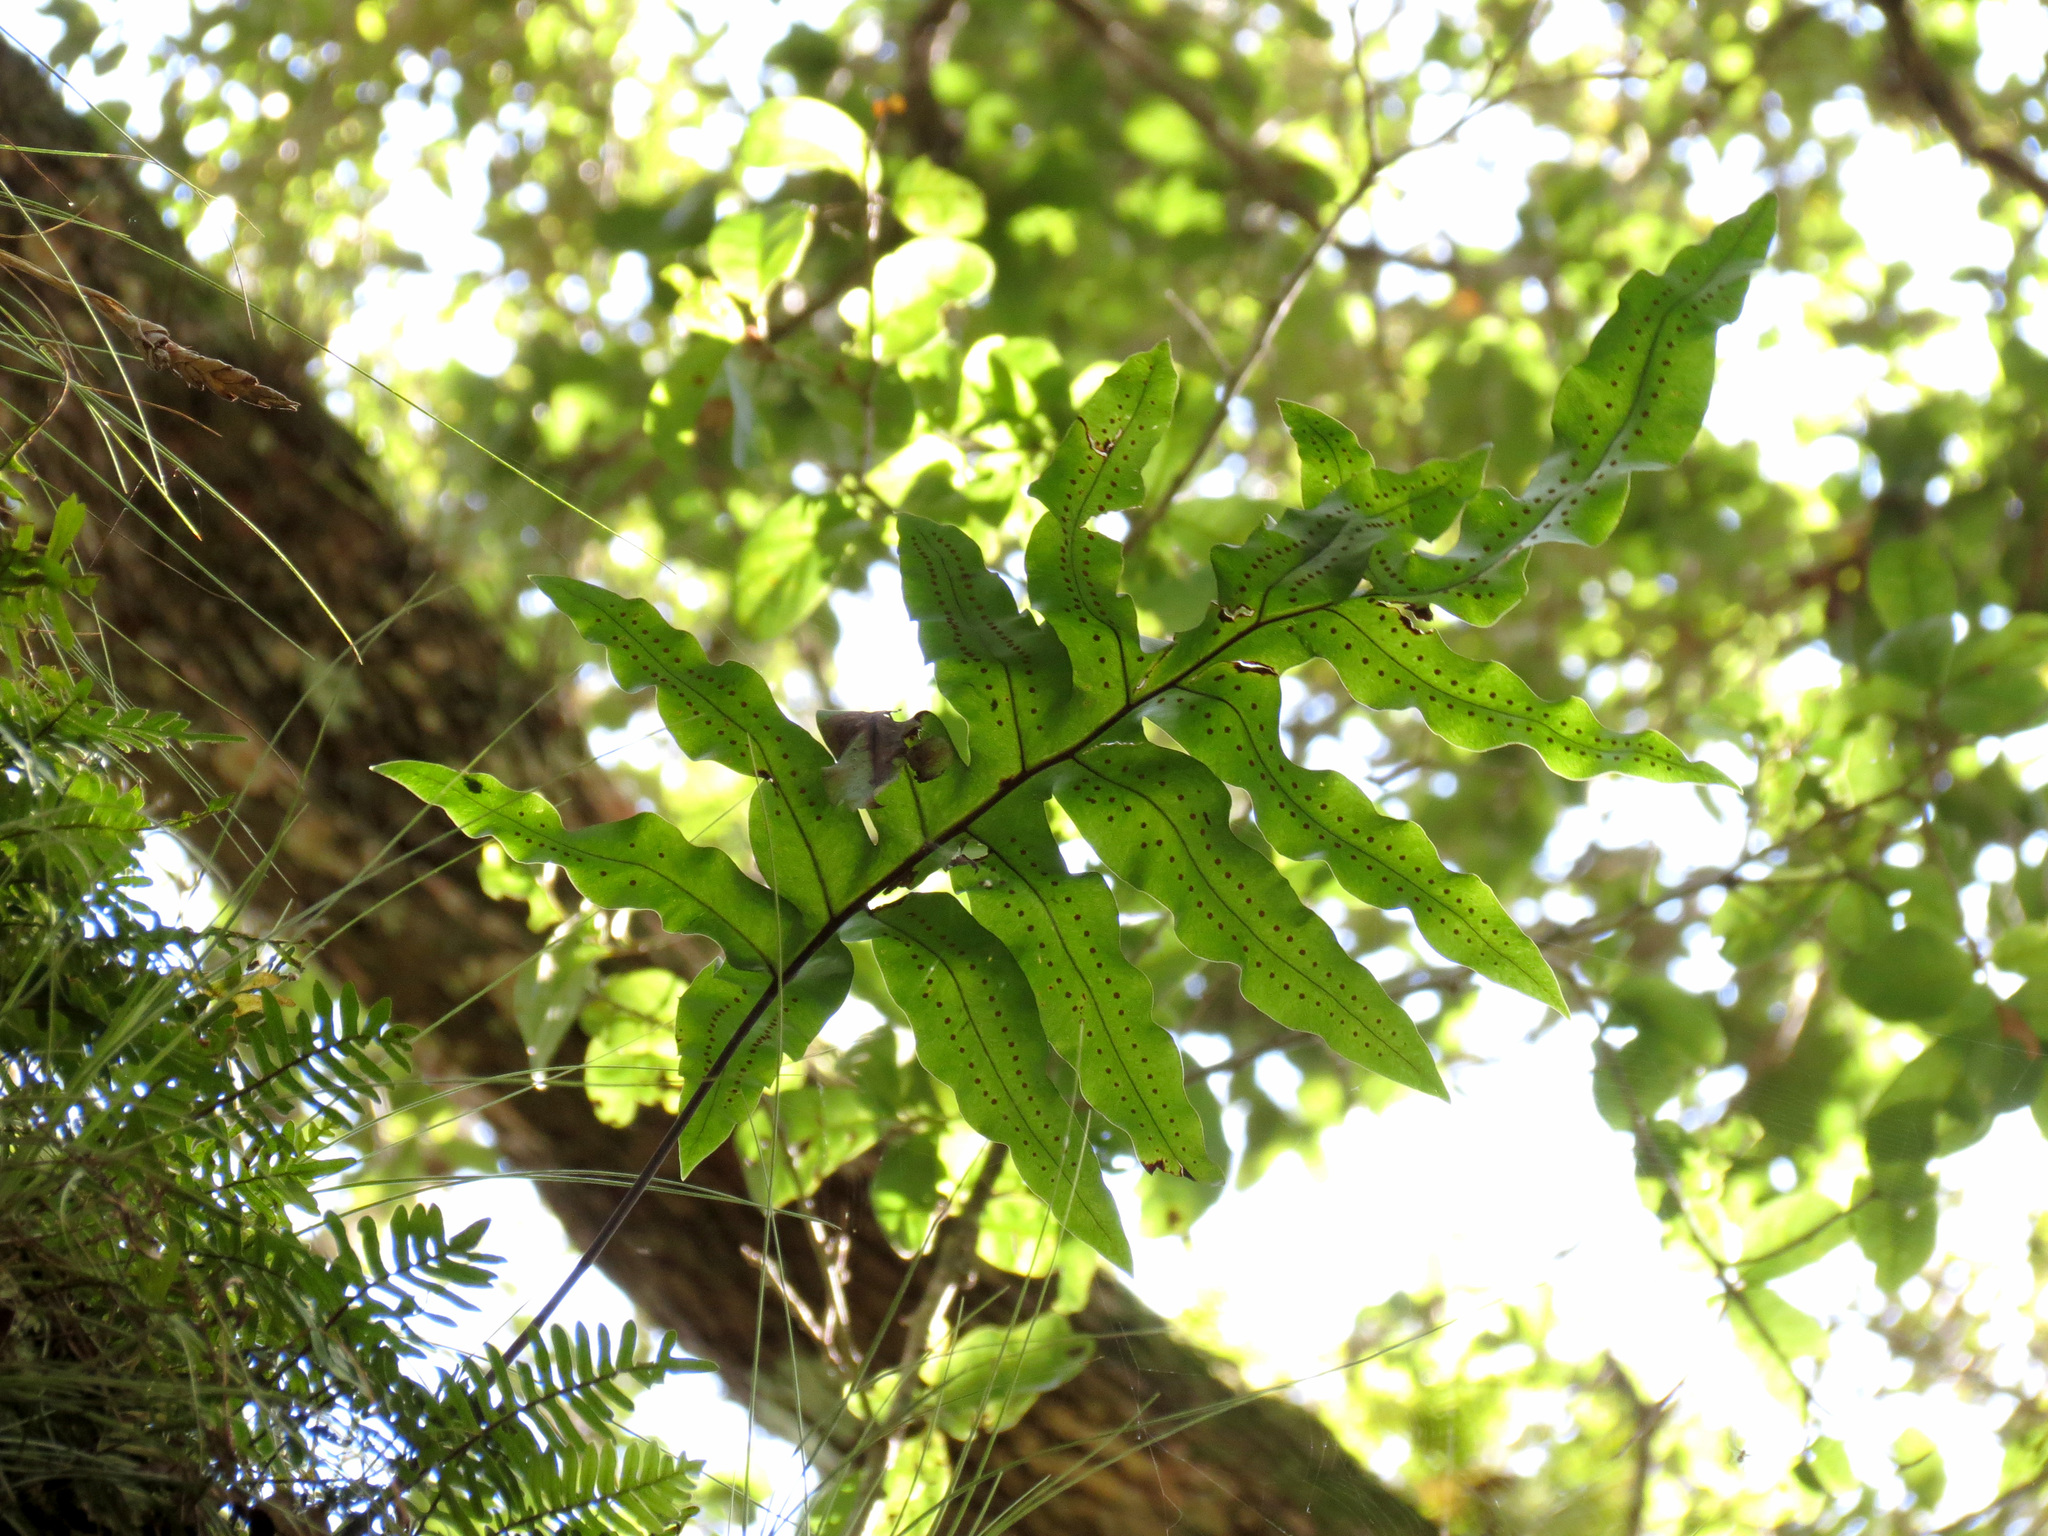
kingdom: Plantae
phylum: Tracheophyta
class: Polypodiopsida
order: Polypodiales
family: Polypodiaceae
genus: Phlebodium
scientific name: Phlebodium aureum
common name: Gold-foot fern
